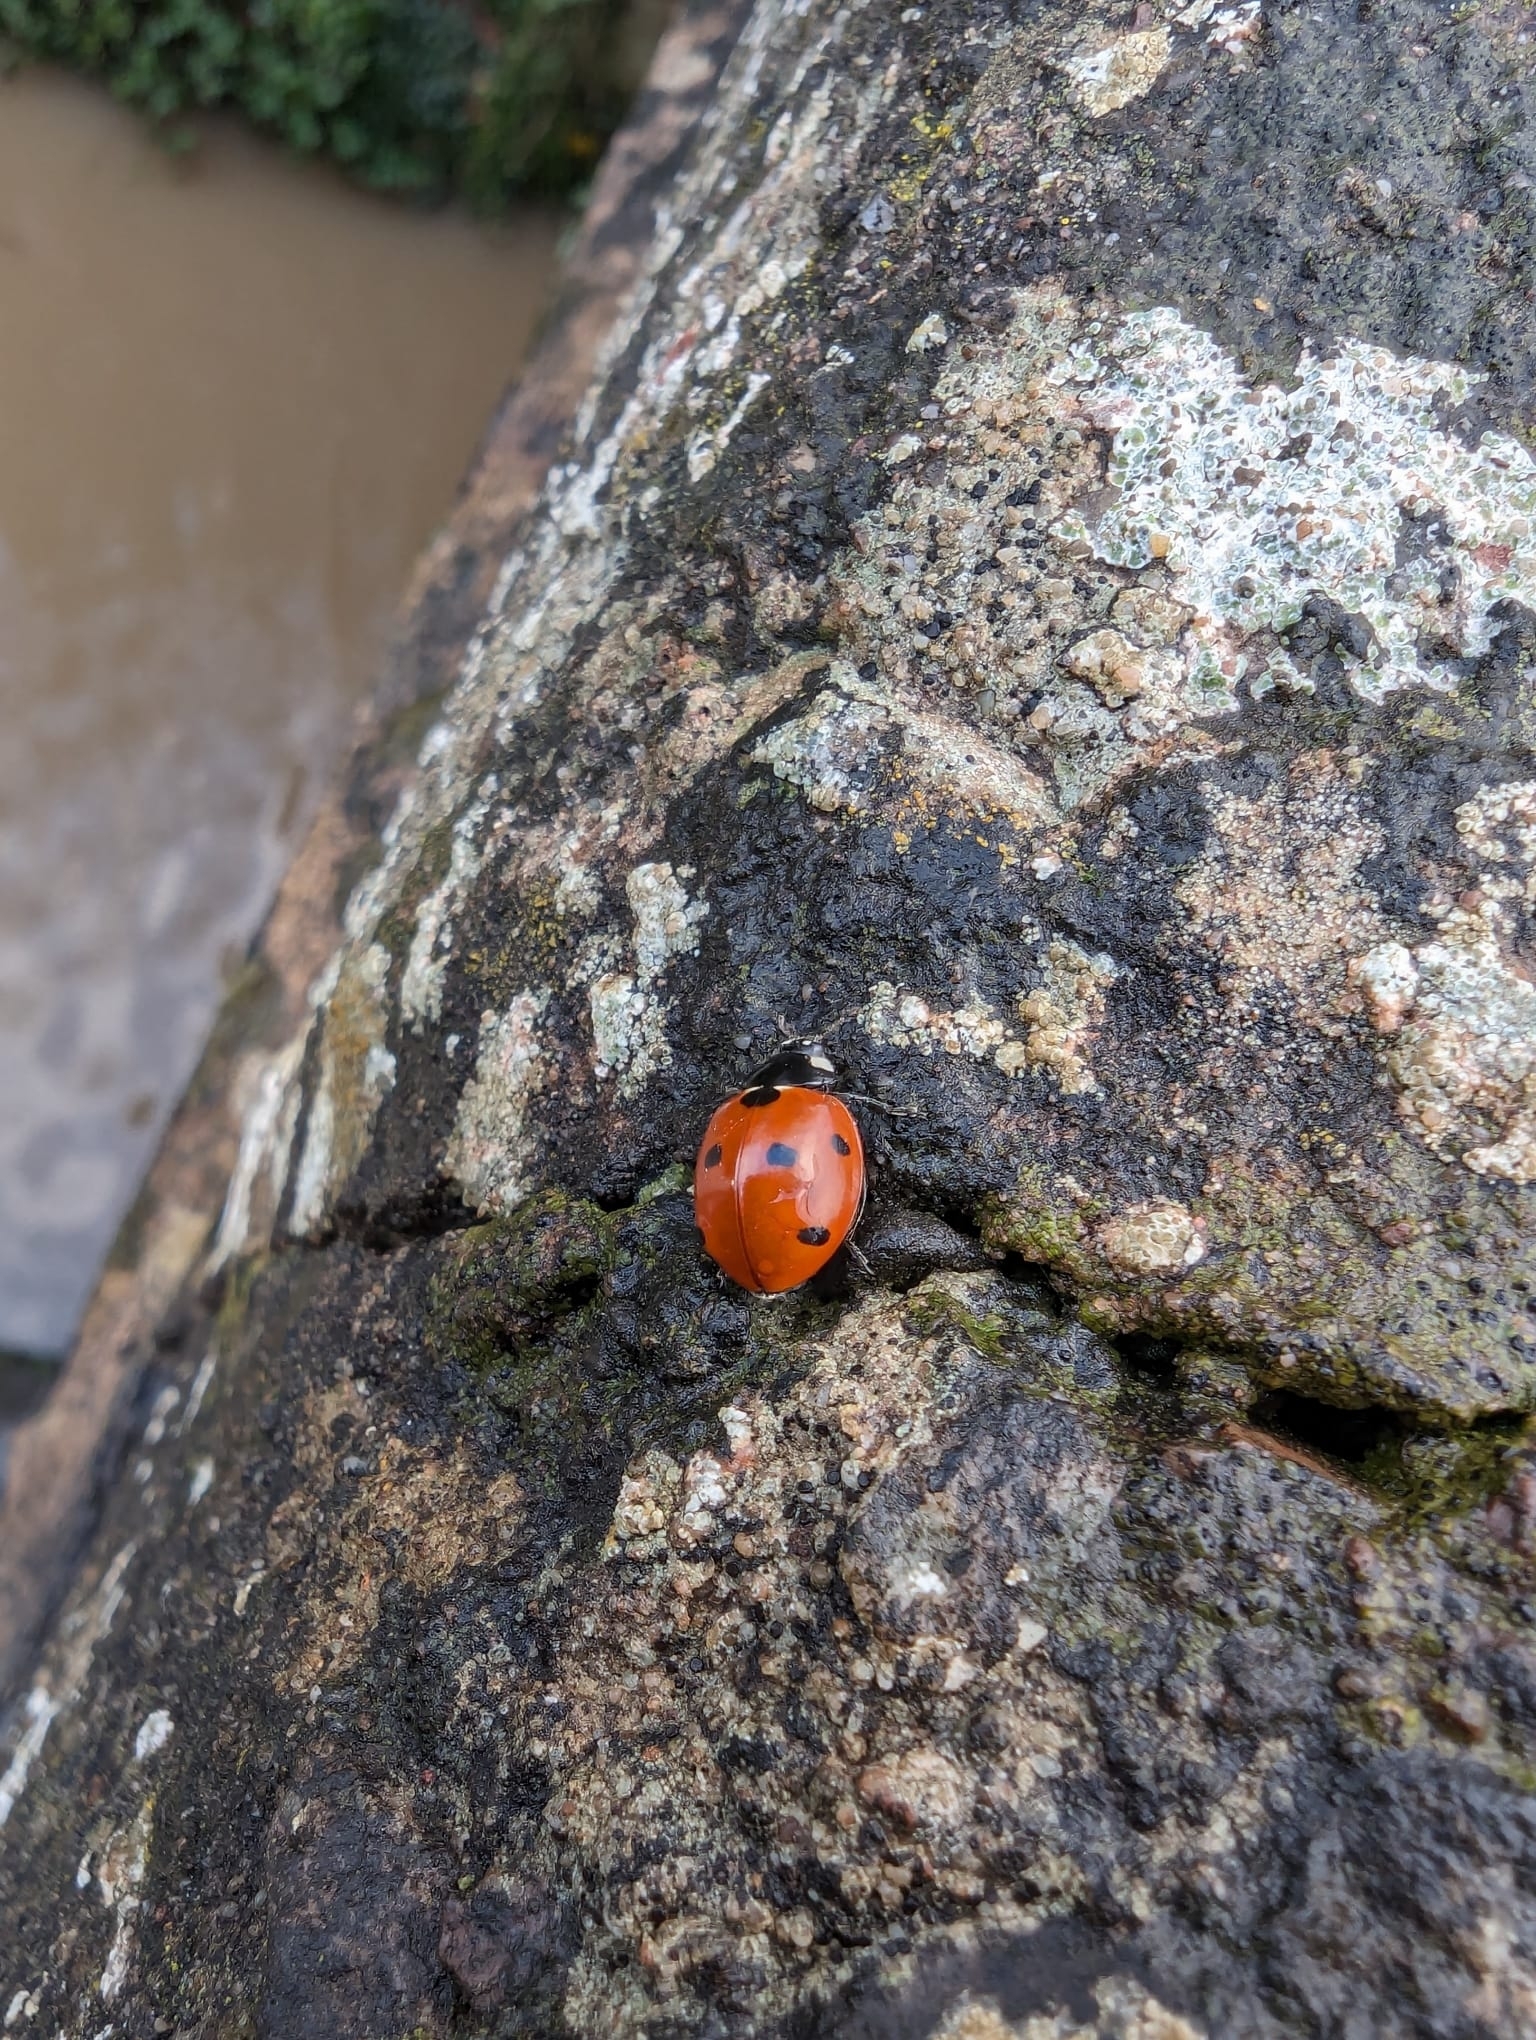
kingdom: Animalia
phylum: Arthropoda
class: Insecta
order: Coleoptera
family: Coccinellidae
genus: Coccinella
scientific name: Coccinella septempunctata
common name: Sevenspotted lady beetle
